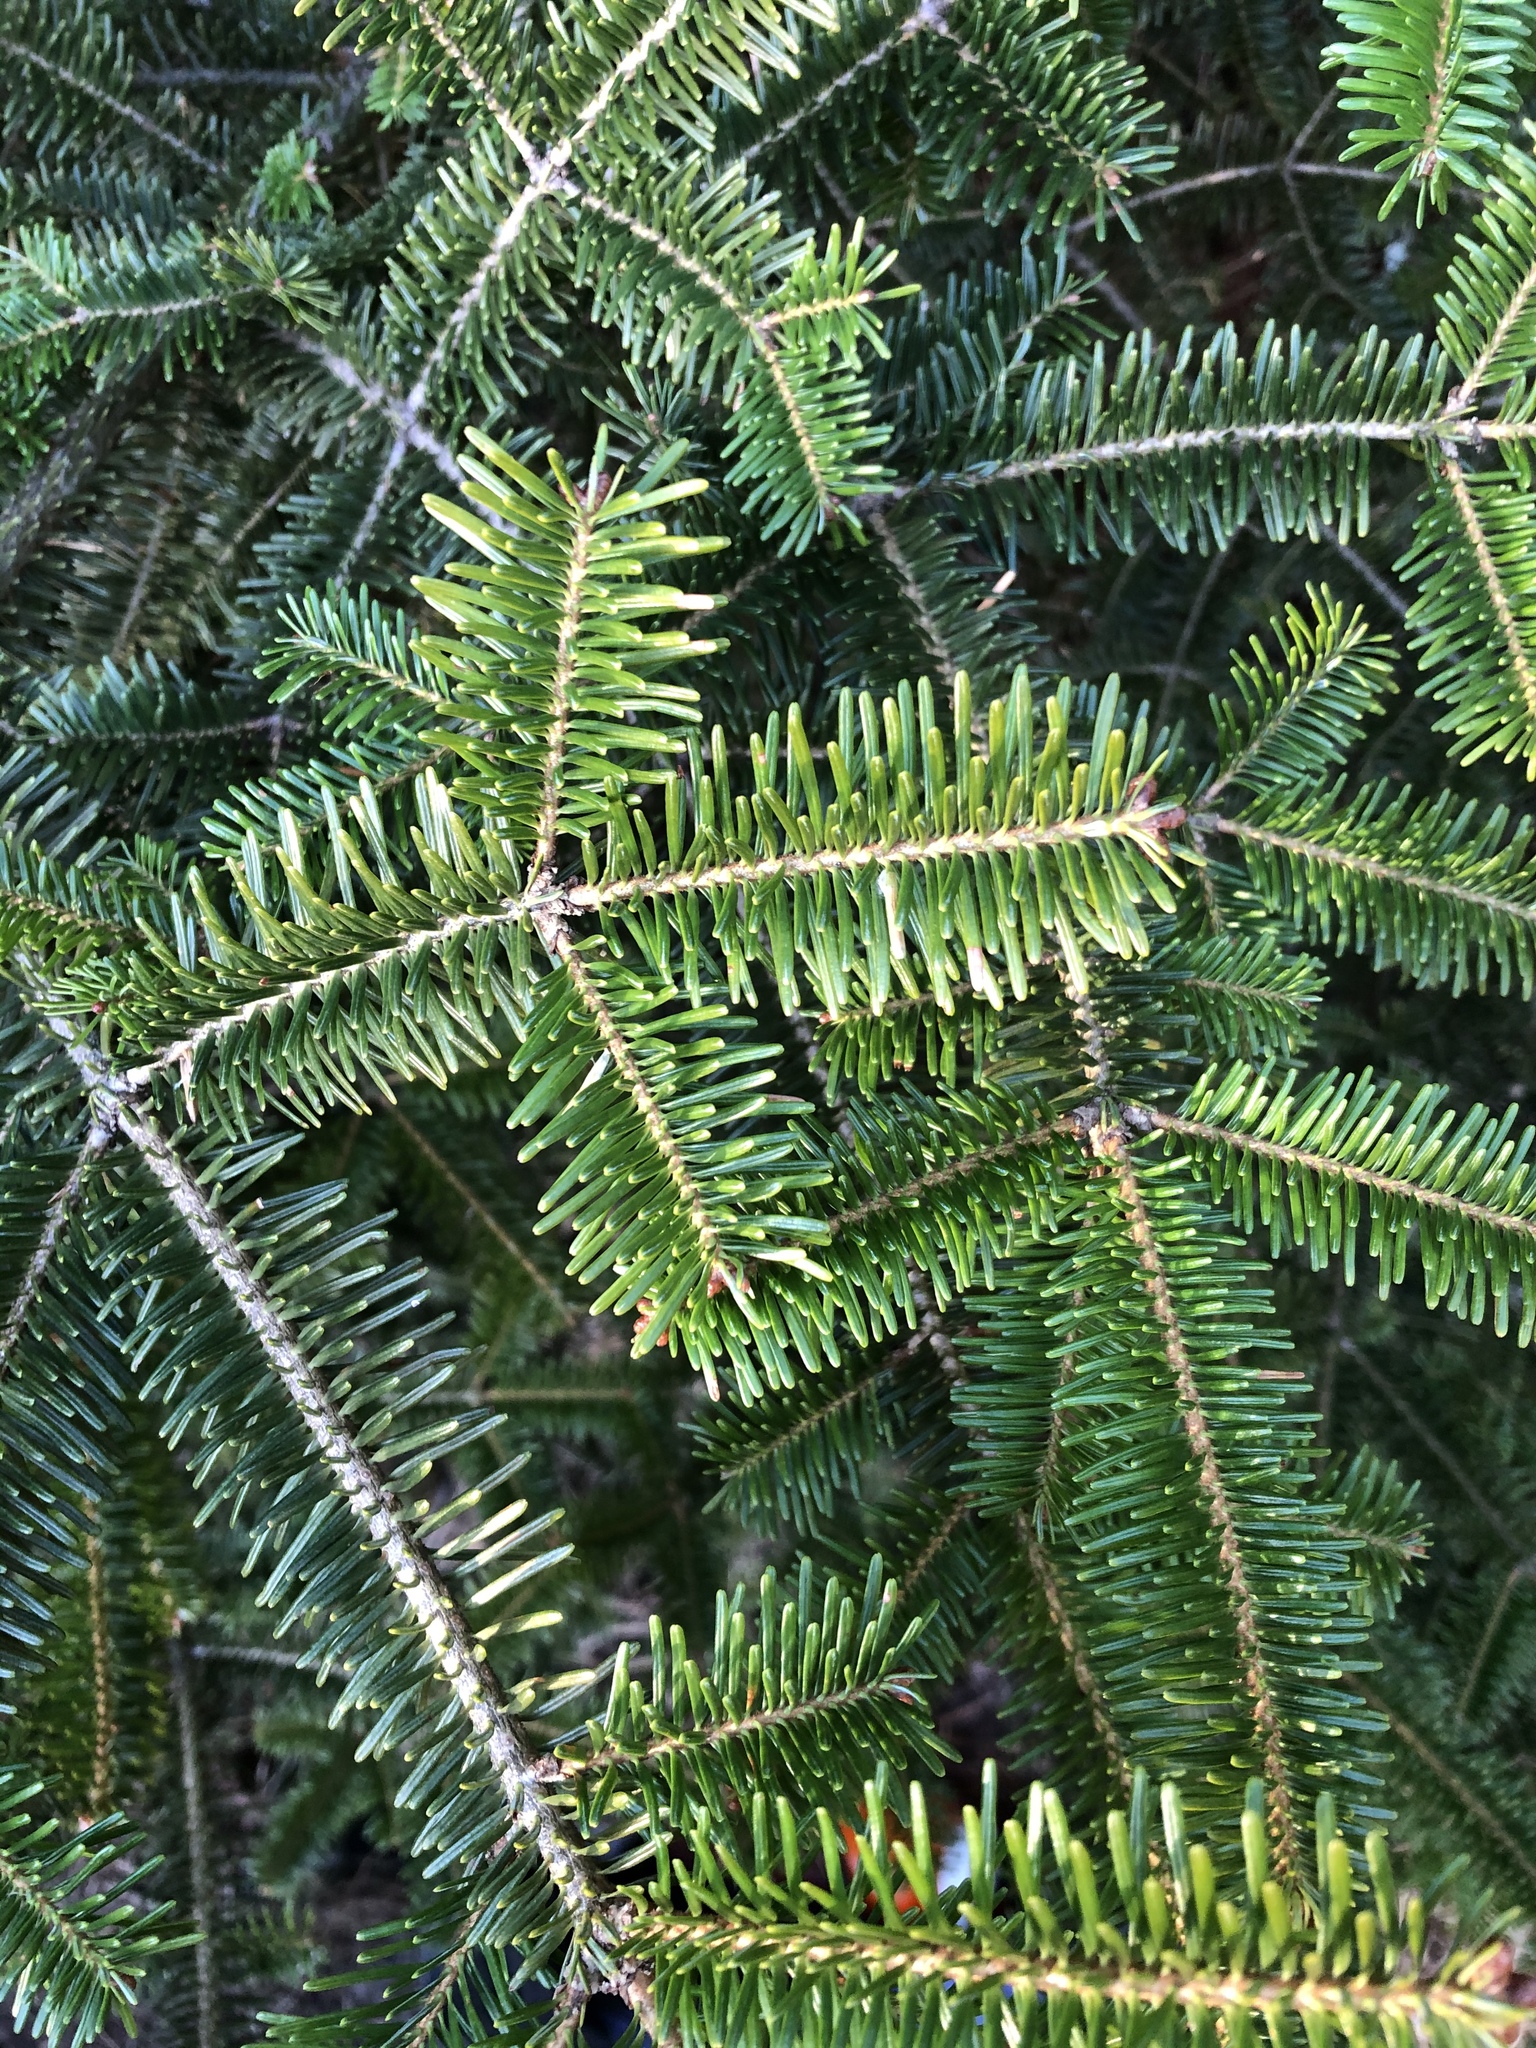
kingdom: Plantae
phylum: Tracheophyta
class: Pinopsida
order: Pinales
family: Pinaceae
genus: Abies
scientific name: Abies fraseri
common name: Fraser fir
